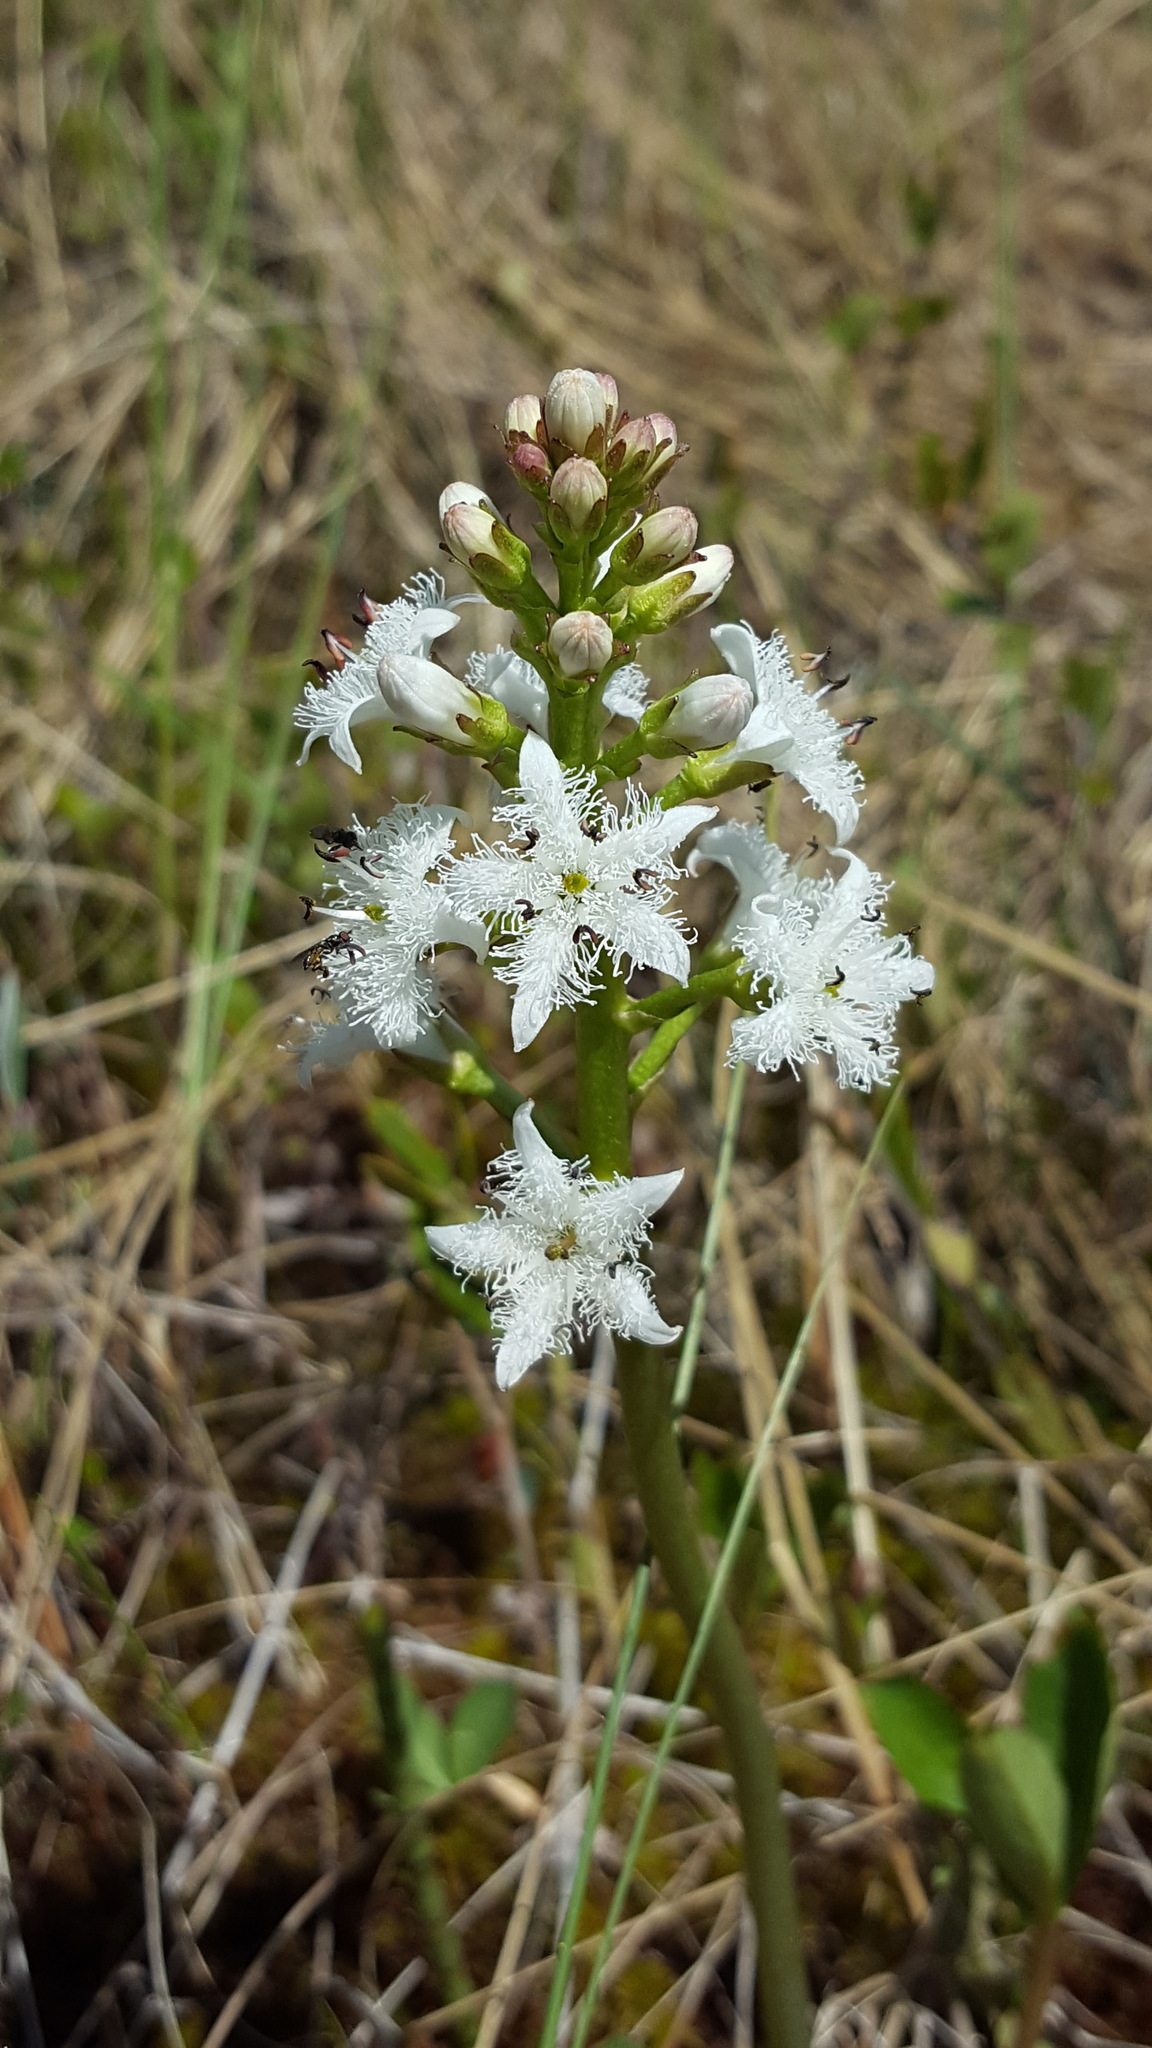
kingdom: Plantae
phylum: Tracheophyta
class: Magnoliopsida
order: Asterales
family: Menyanthaceae
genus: Menyanthes
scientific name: Menyanthes trifoliata
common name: Bogbean
